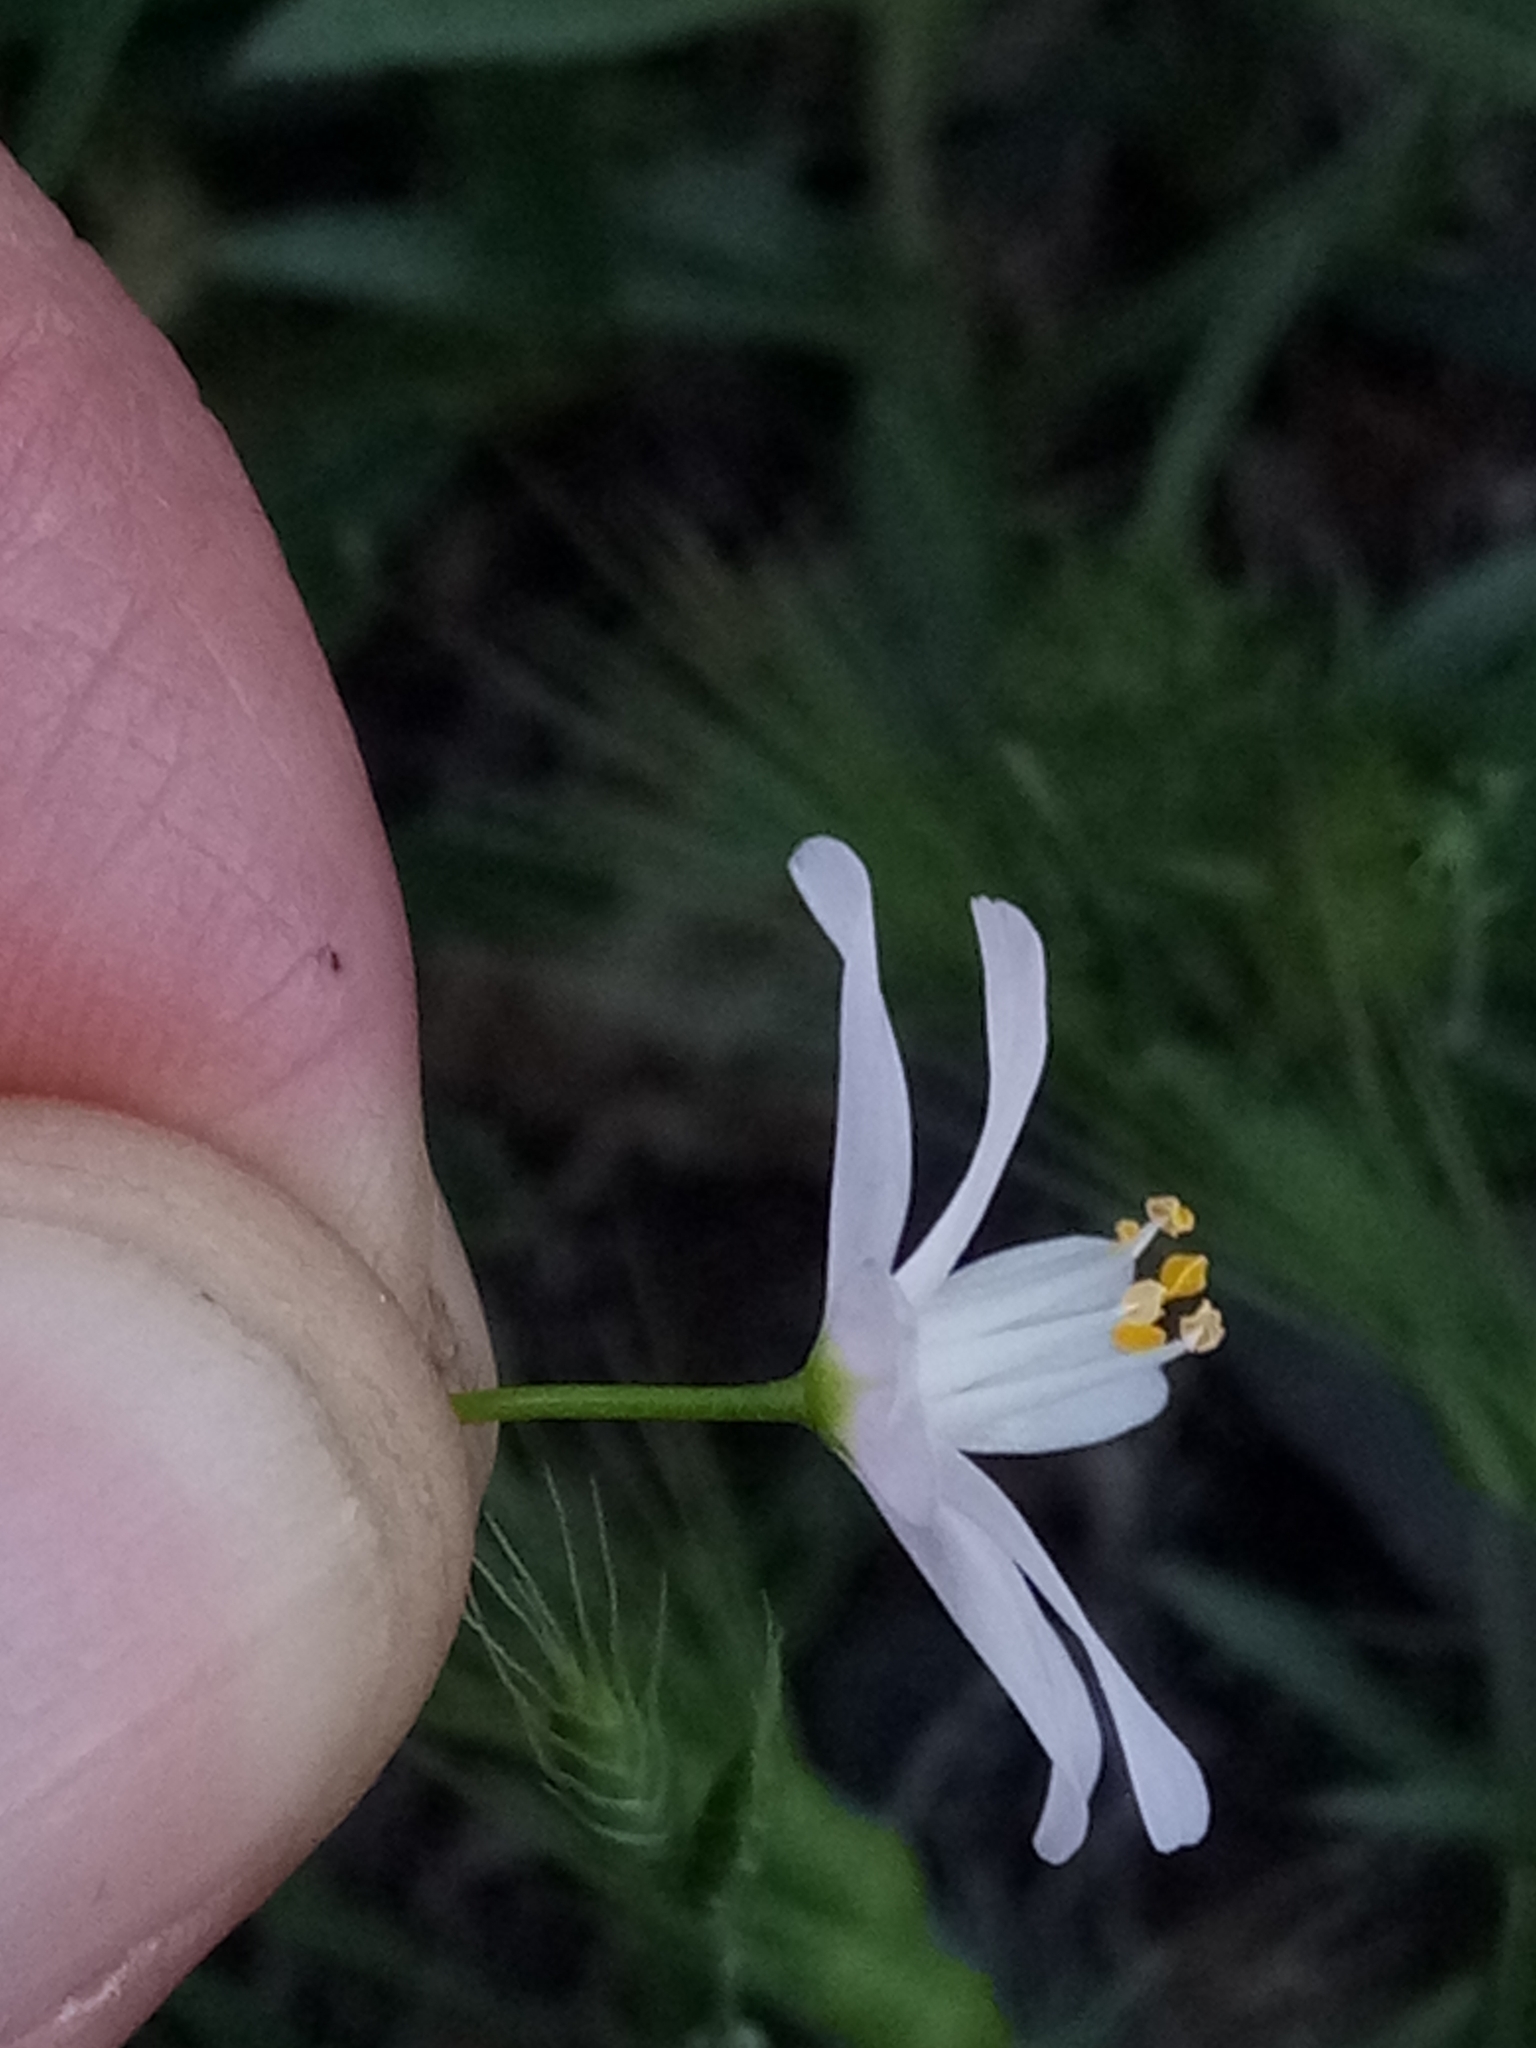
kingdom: Plantae
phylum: Tracheophyta
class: Liliopsida
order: Asparagales
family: Amaryllidaceae
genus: Allium
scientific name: Allium roseum
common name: Rosy garlic
